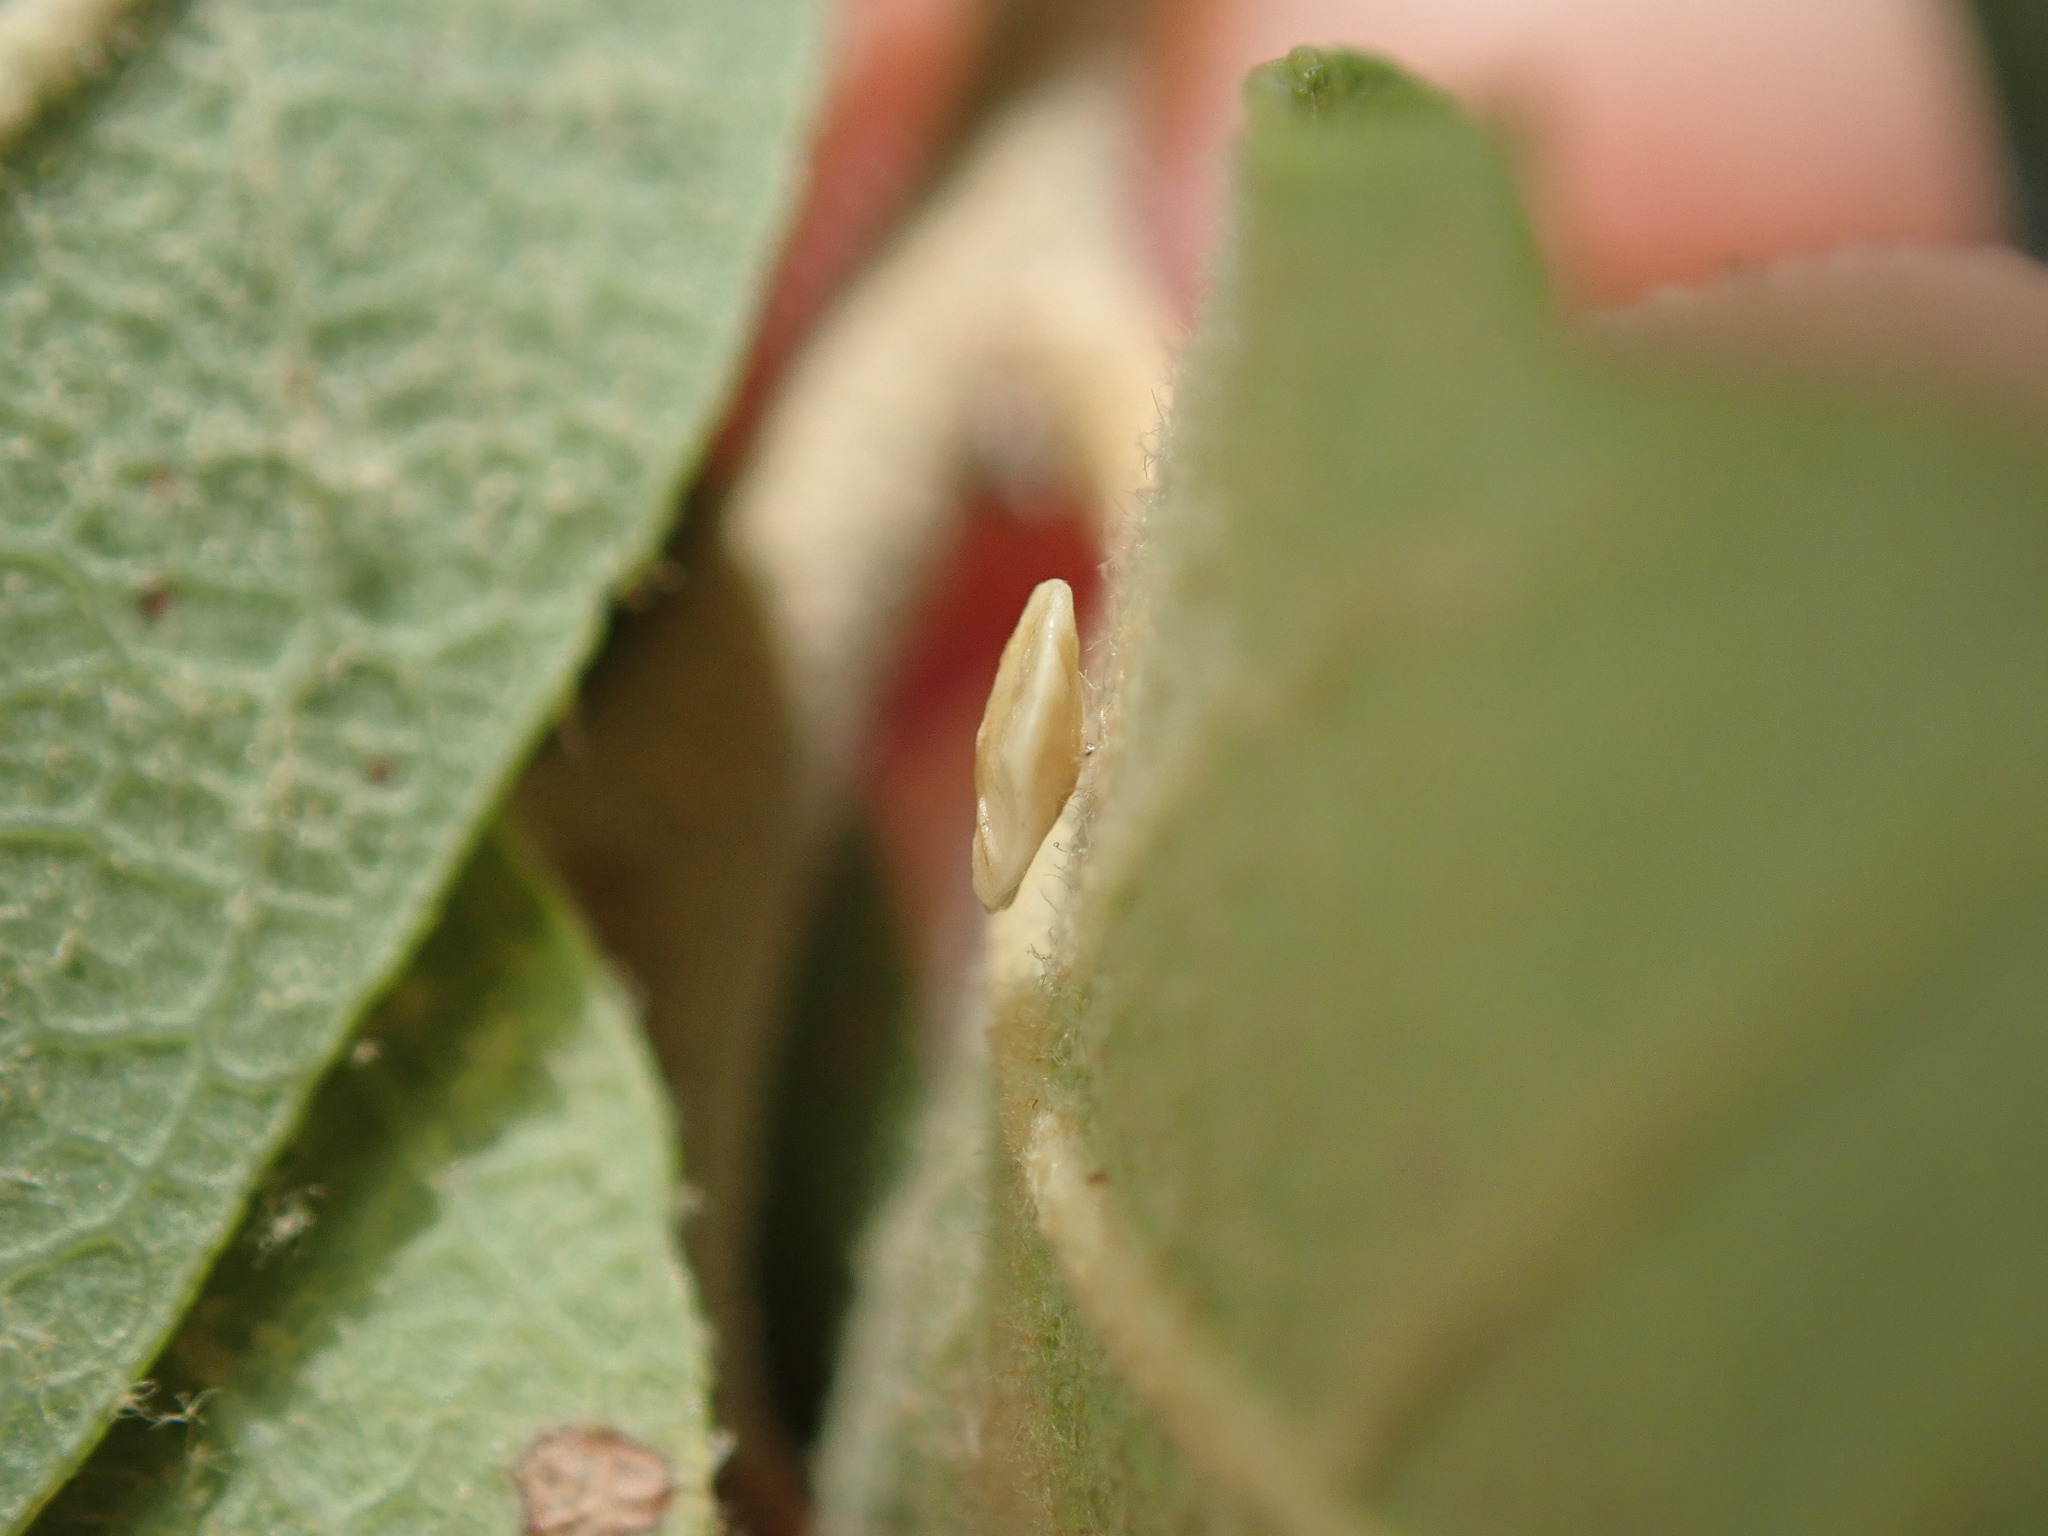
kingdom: Animalia
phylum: Arthropoda
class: Insecta
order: Hymenoptera
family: Cynipidae
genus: Andricus
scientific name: Andricus
